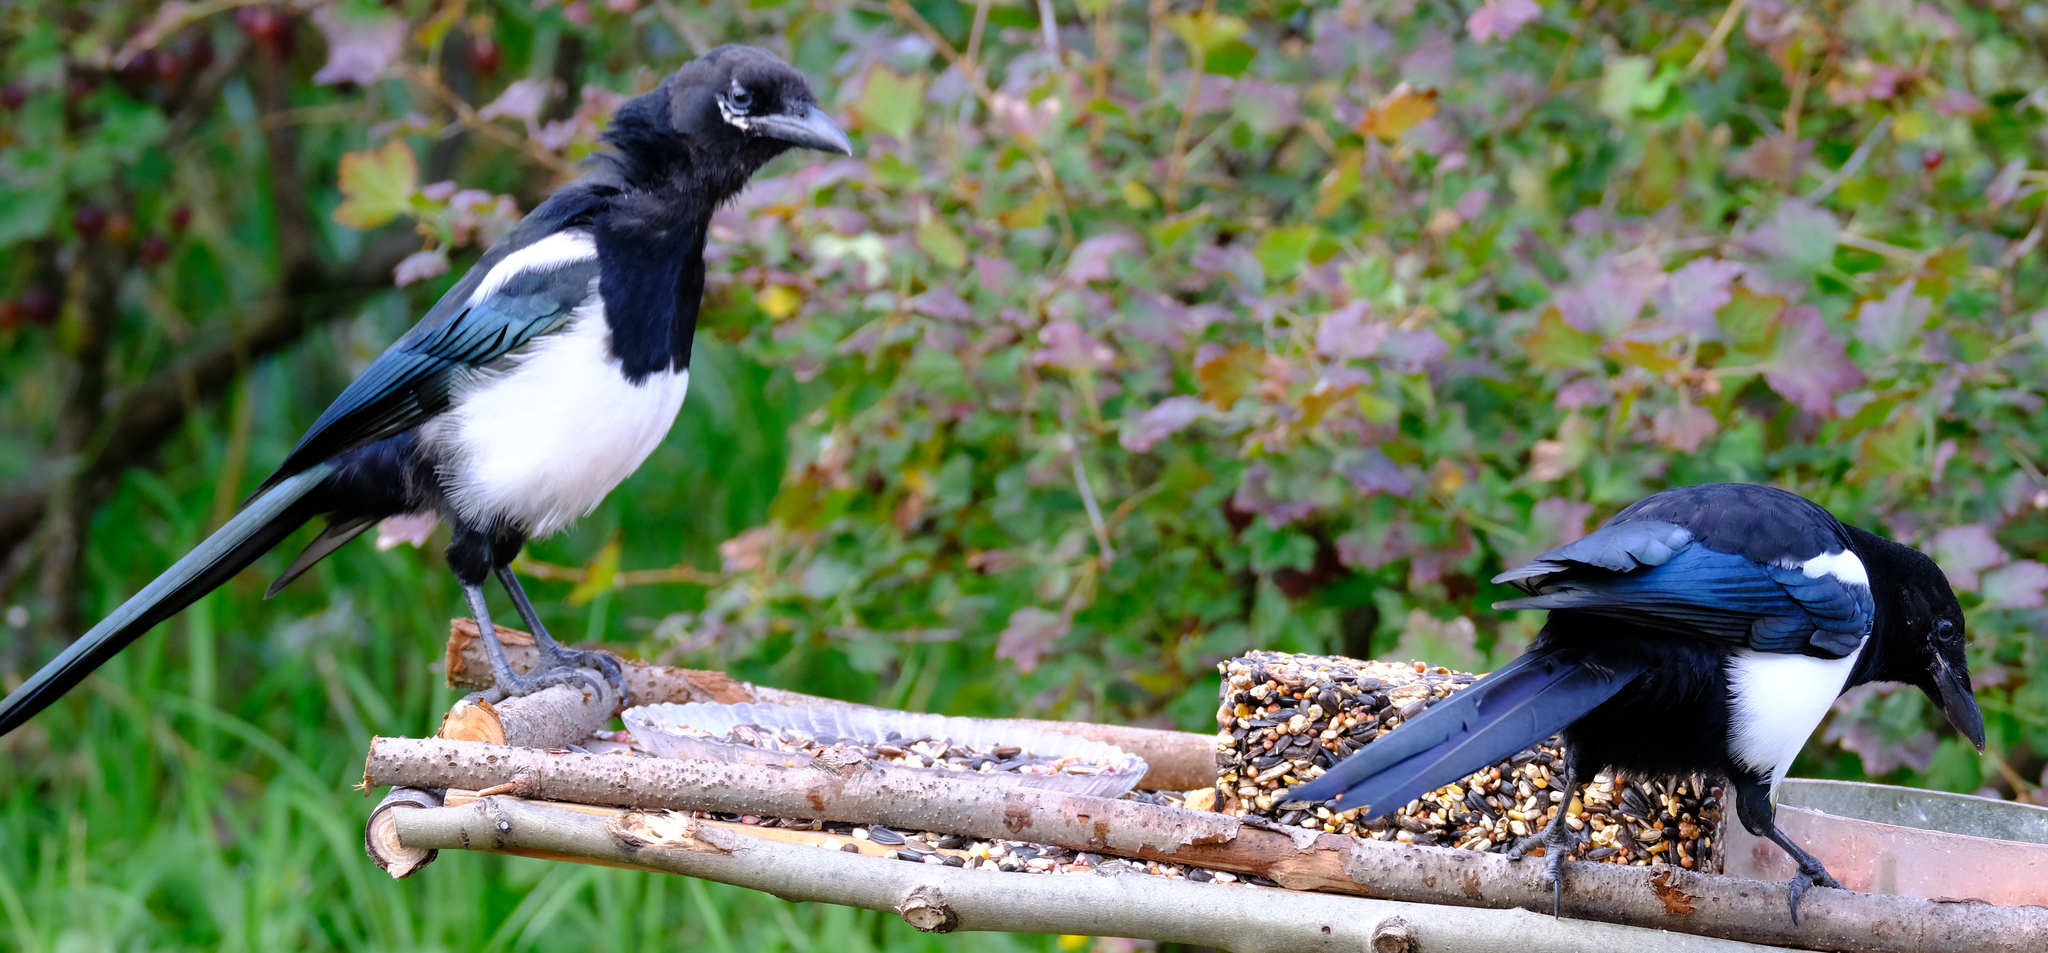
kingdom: Animalia
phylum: Chordata
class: Aves
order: Passeriformes
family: Corvidae
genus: Pica
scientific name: Pica hudsonia
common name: Black-billed magpie
